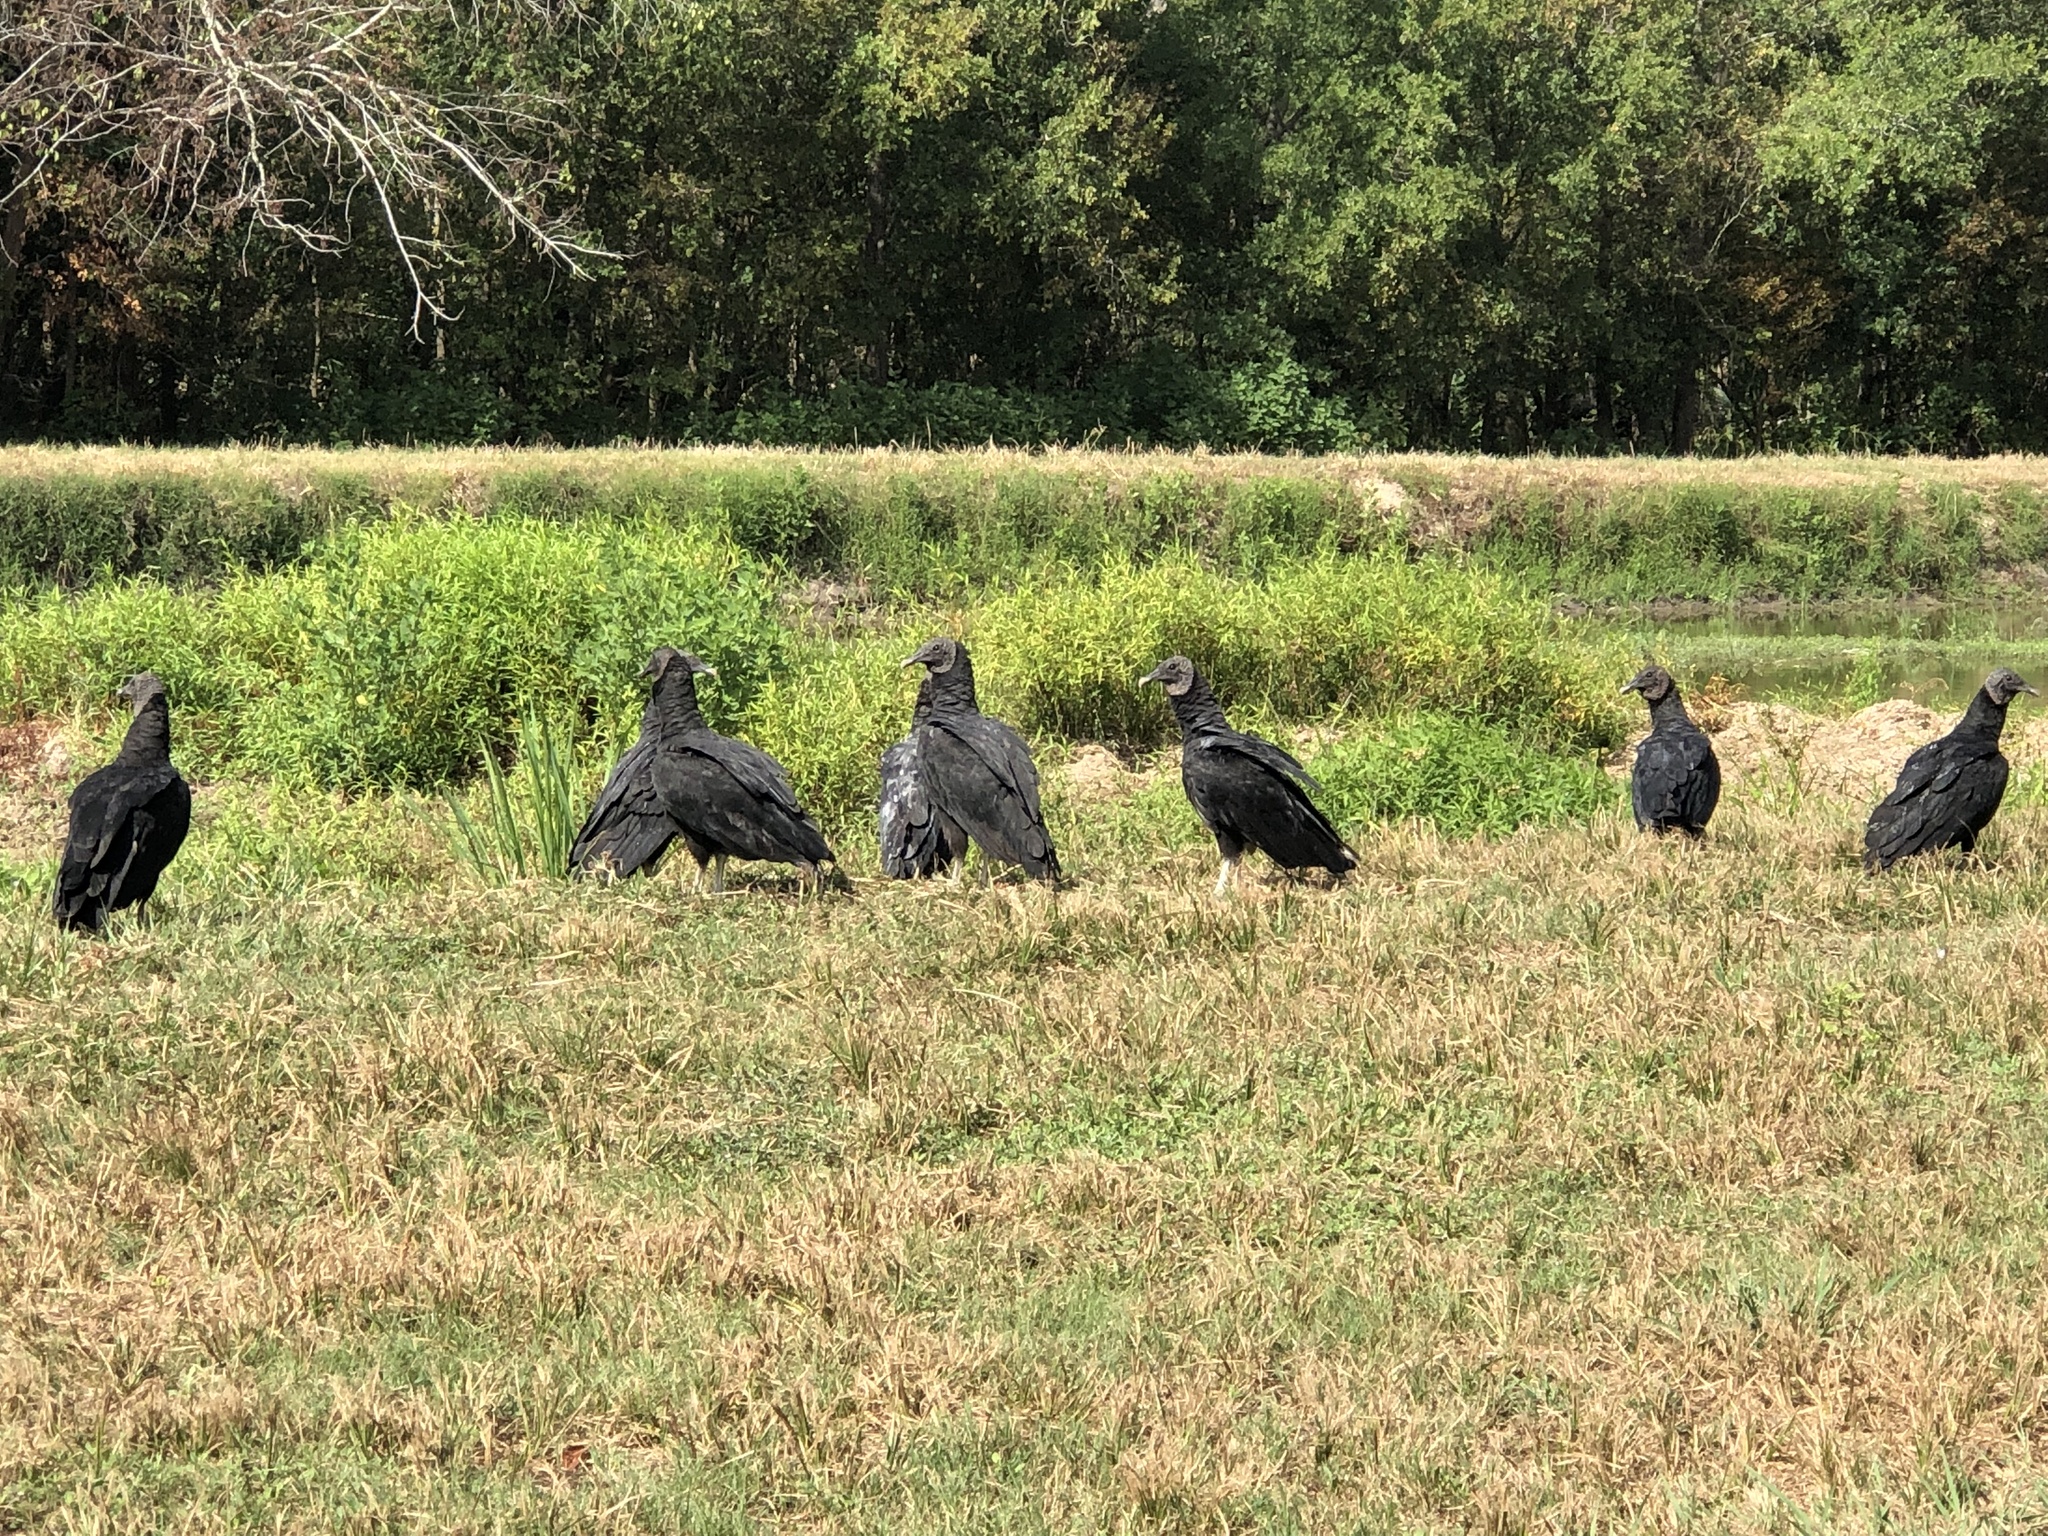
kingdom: Animalia
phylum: Chordata
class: Aves
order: Accipitriformes
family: Cathartidae
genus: Coragyps
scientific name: Coragyps atratus
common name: Black vulture
